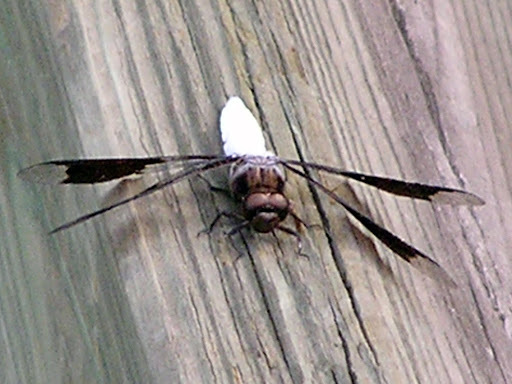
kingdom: Animalia
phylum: Arthropoda
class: Insecta
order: Odonata
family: Libellulidae
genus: Plathemis
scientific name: Plathemis lydia
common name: Common whitetail
